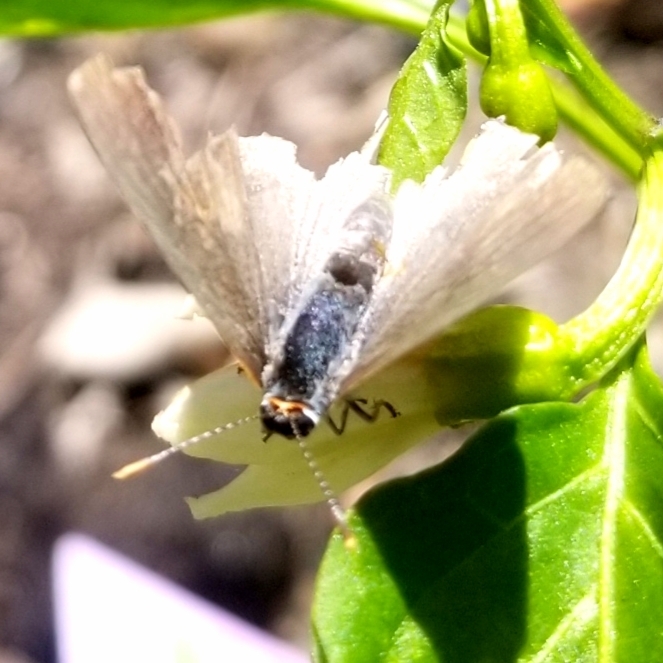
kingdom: Animalia
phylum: Arthropoda
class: Insecta
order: Lepidoptera
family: Lycaenidae
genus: Strymon
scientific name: Strymon melinus
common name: Gray hairstreak
